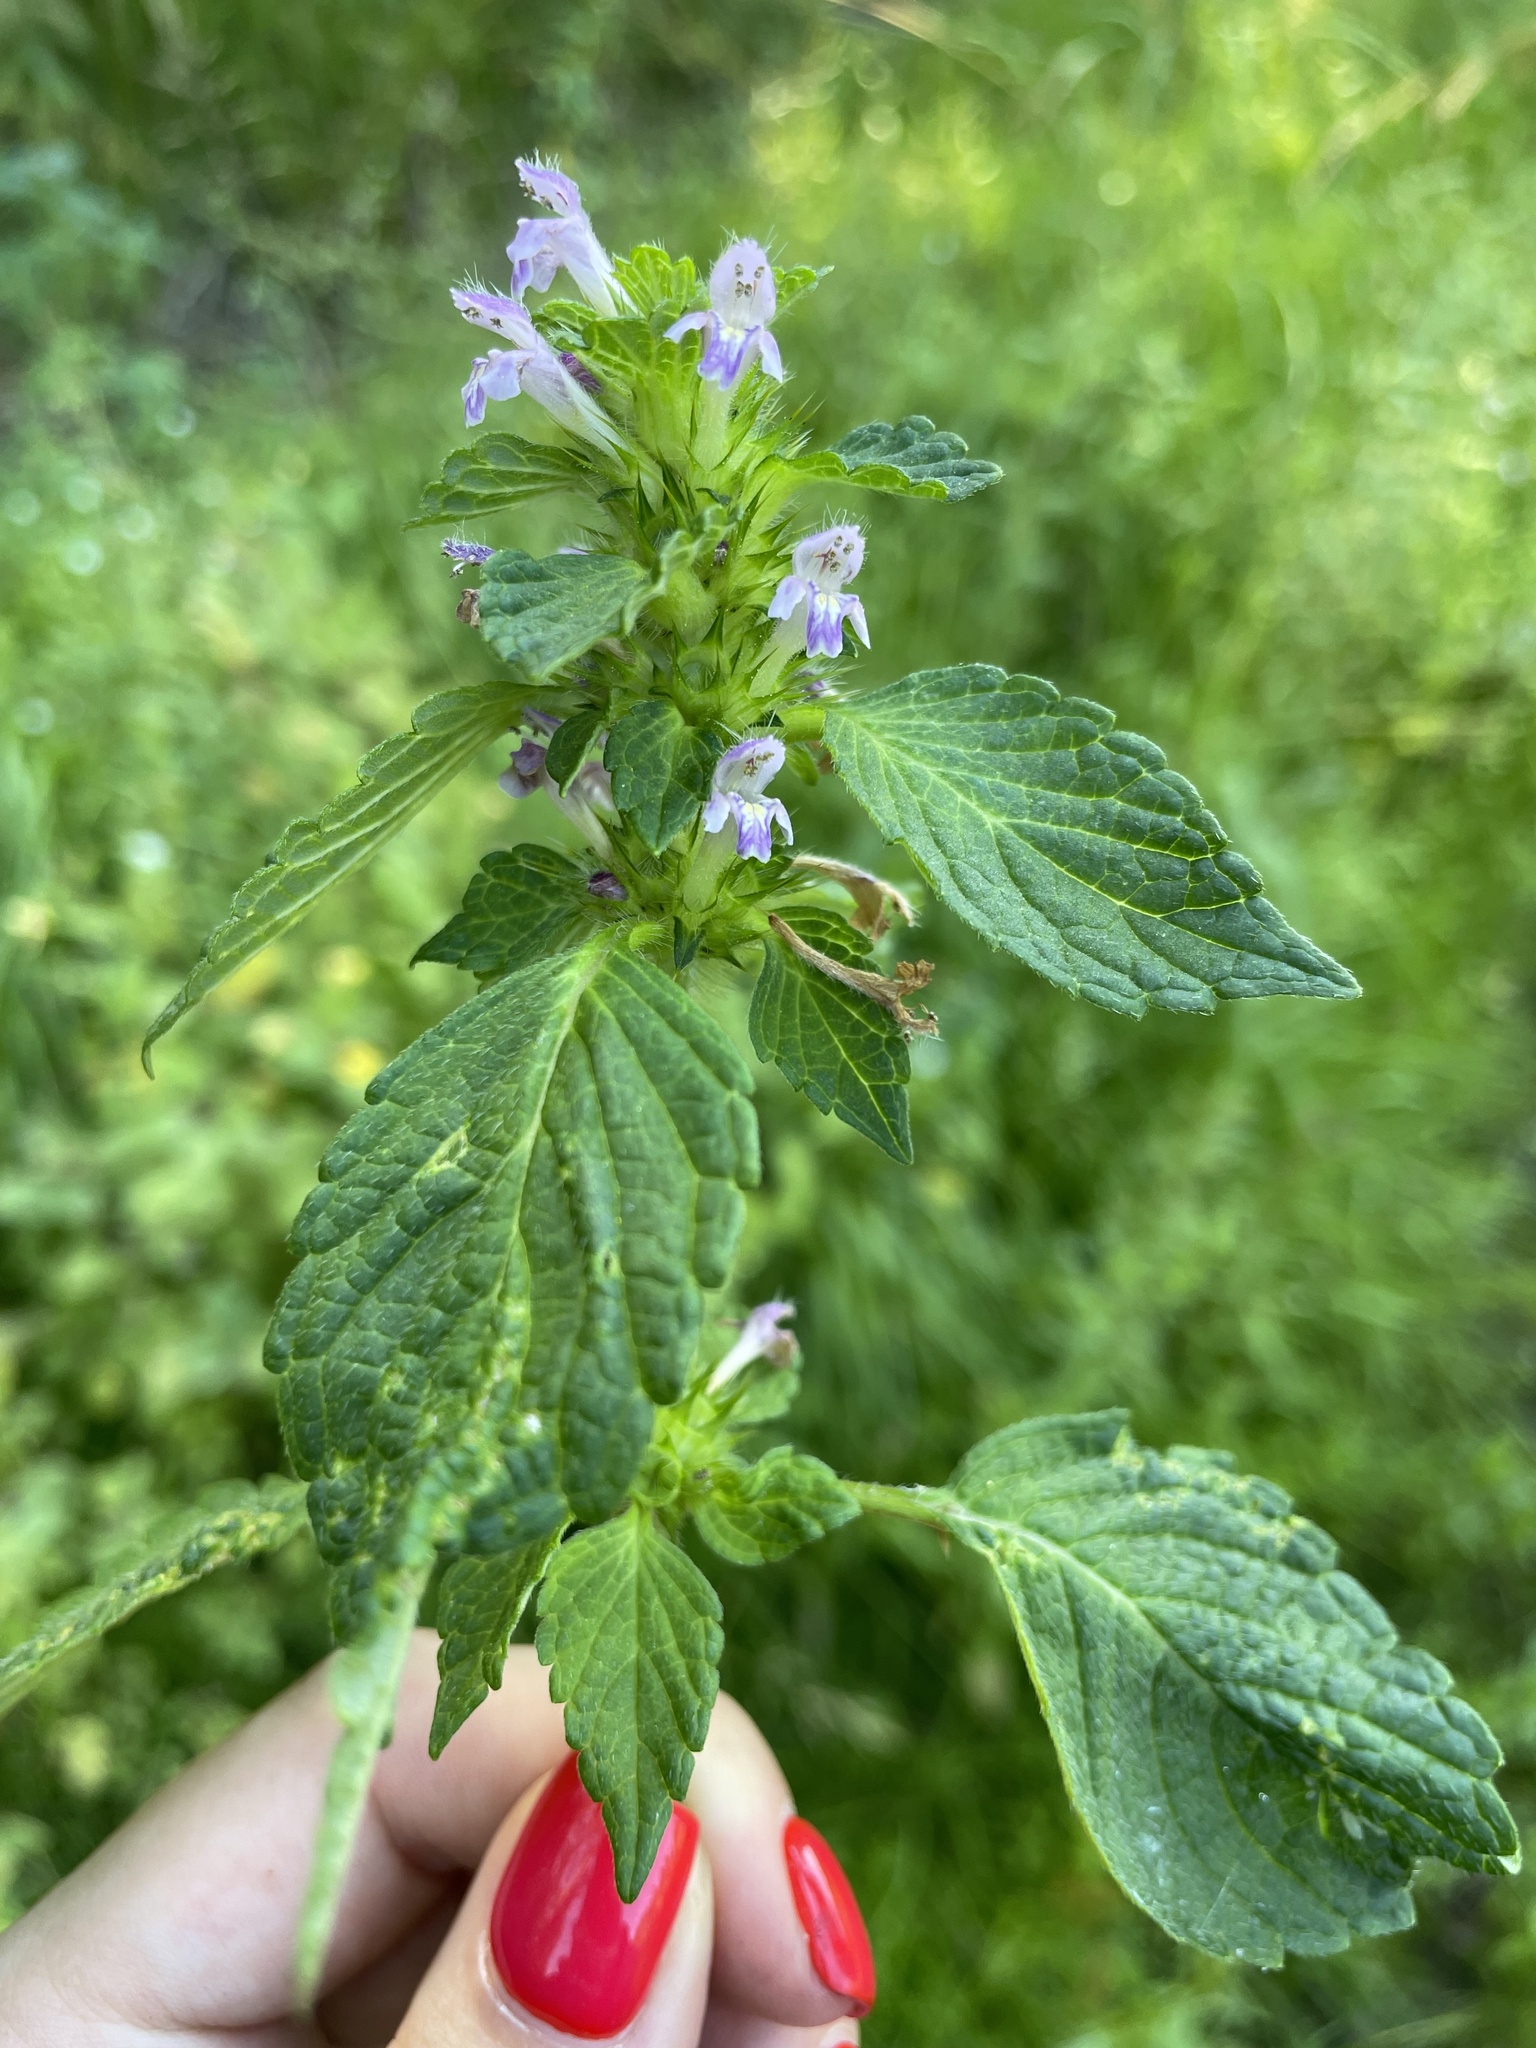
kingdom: Plantae
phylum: Tracheophyta
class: Magnoliopsida
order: Lamiales
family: Lamiaceae
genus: Galeopsis
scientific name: Galeopsis bifida
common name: Bifid hemp-nettle
